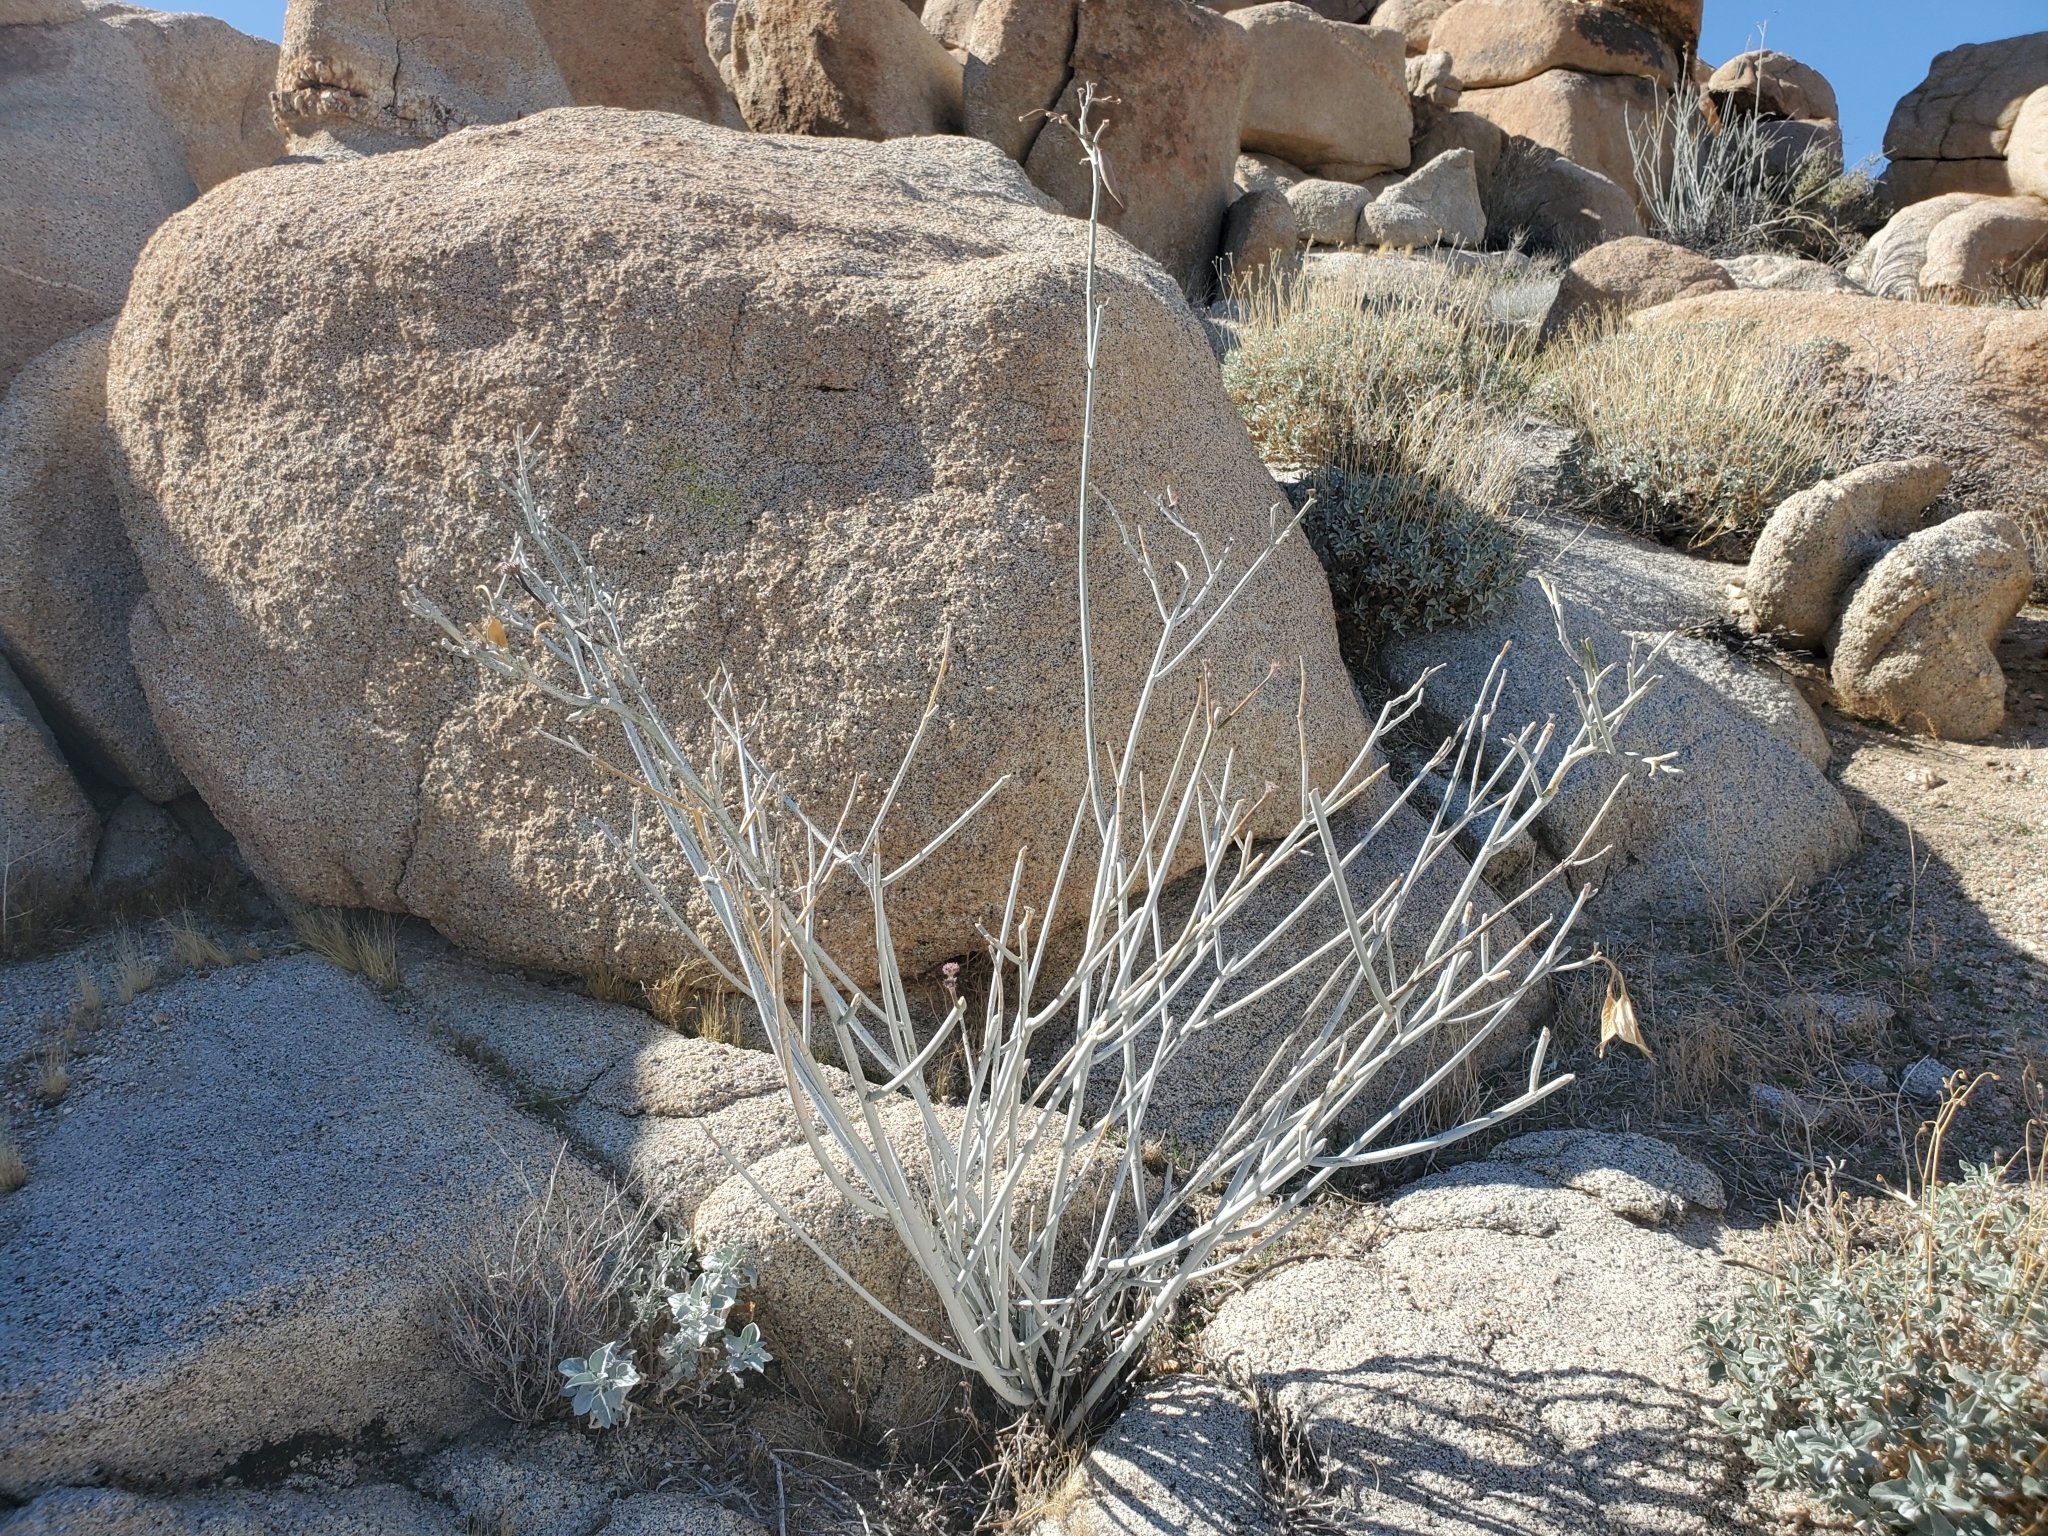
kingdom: Plantae
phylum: Tracheophyta
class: Magnoliopsida
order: Gentianales
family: Apocynaceae
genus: Asclepias
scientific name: Asclepias albicans
